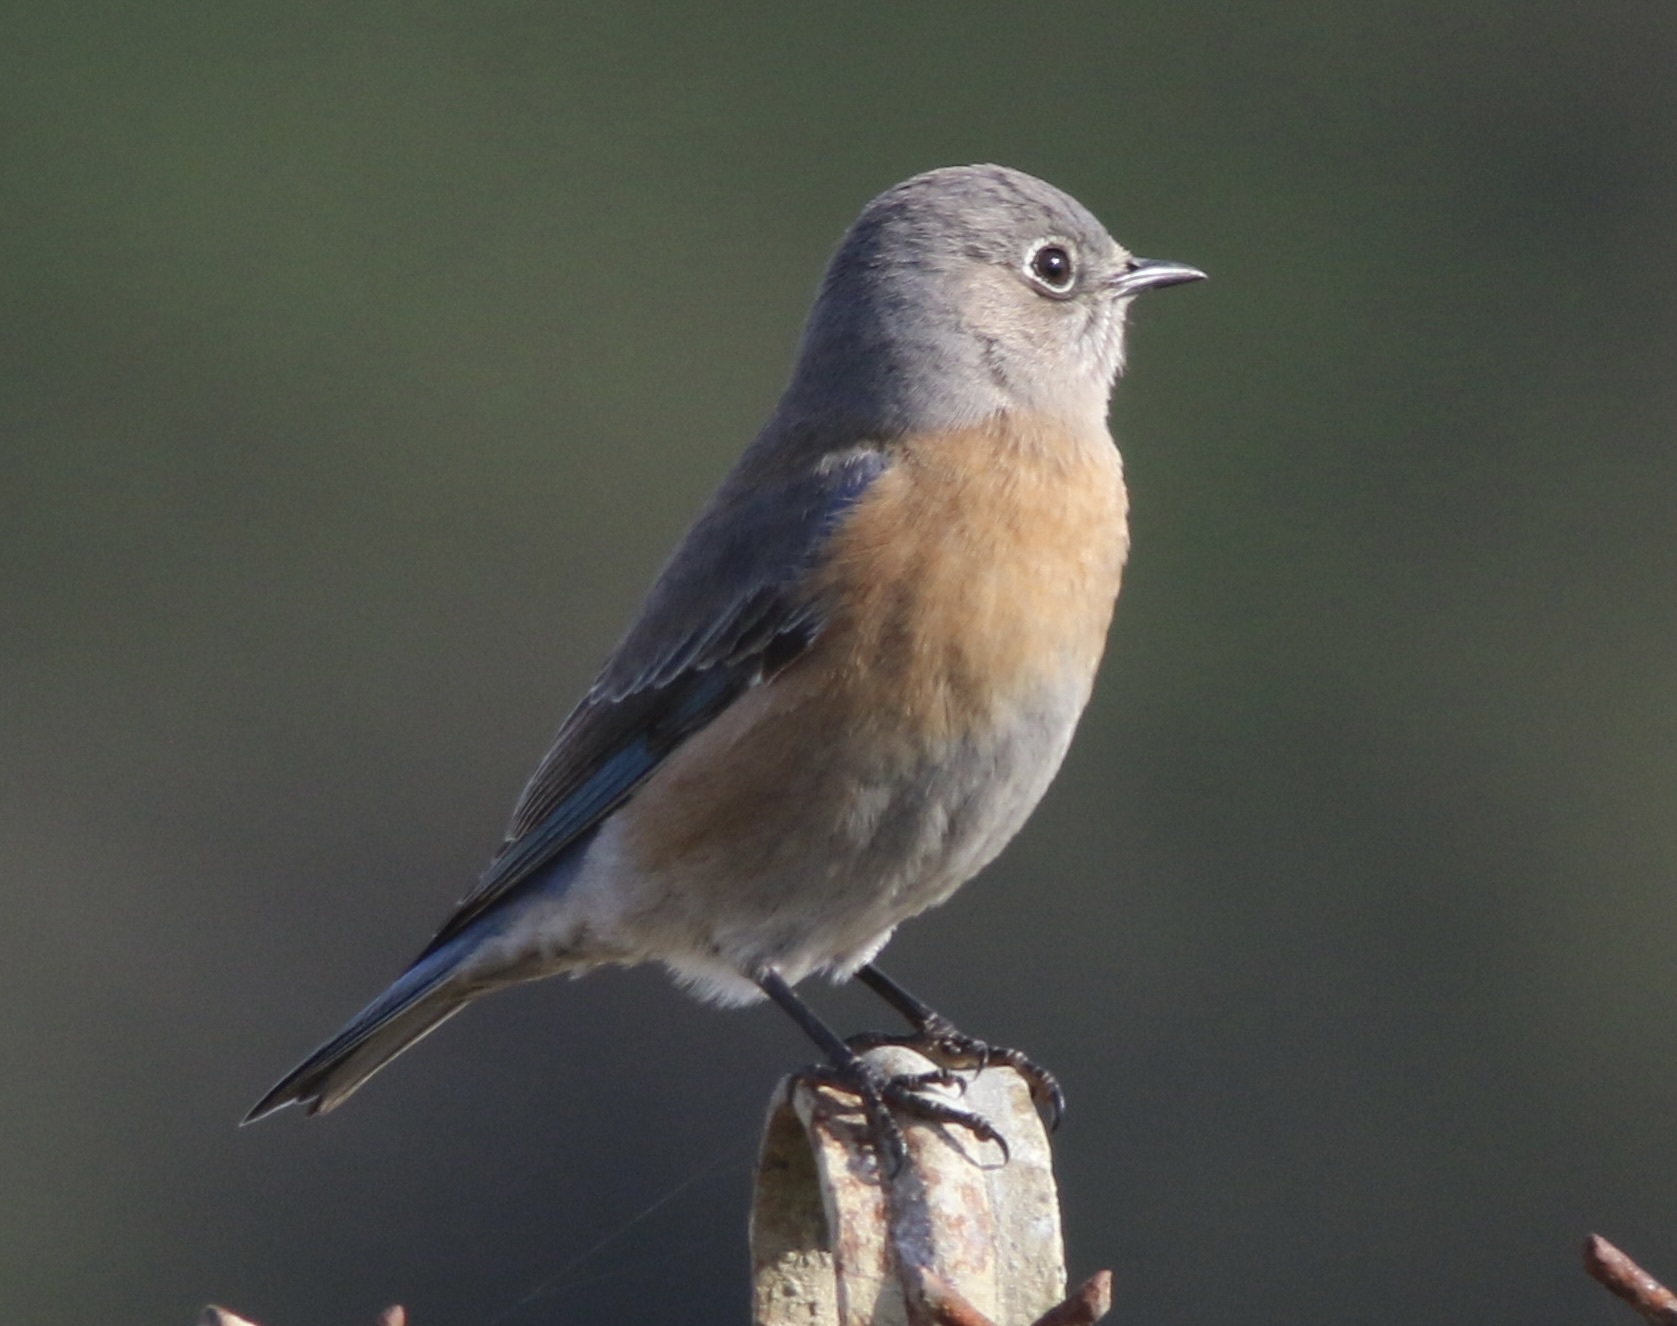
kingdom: Animalia
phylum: Chordata
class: Aves
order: Passeriformes
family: Turdidae
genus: Sialia
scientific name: Sialia mexicana
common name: Western bluebird
